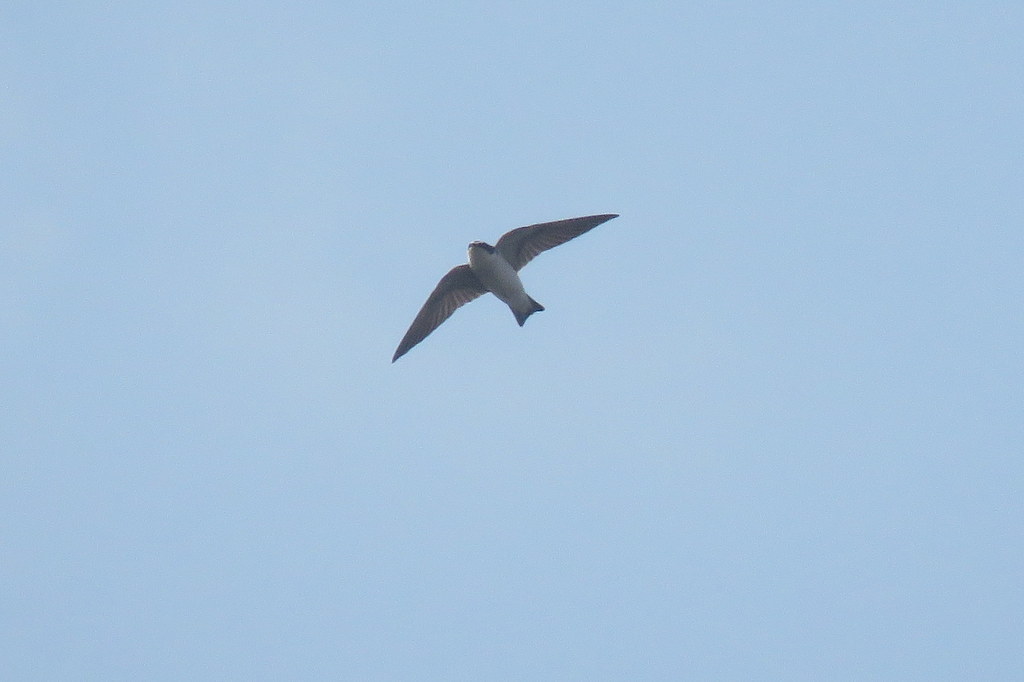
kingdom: Animalia
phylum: Chordata
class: Aves
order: Passeriformes
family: Hirundinidae
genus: Tachycineta
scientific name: Tachycineta leucorrhoa
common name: White-rumped swallow
